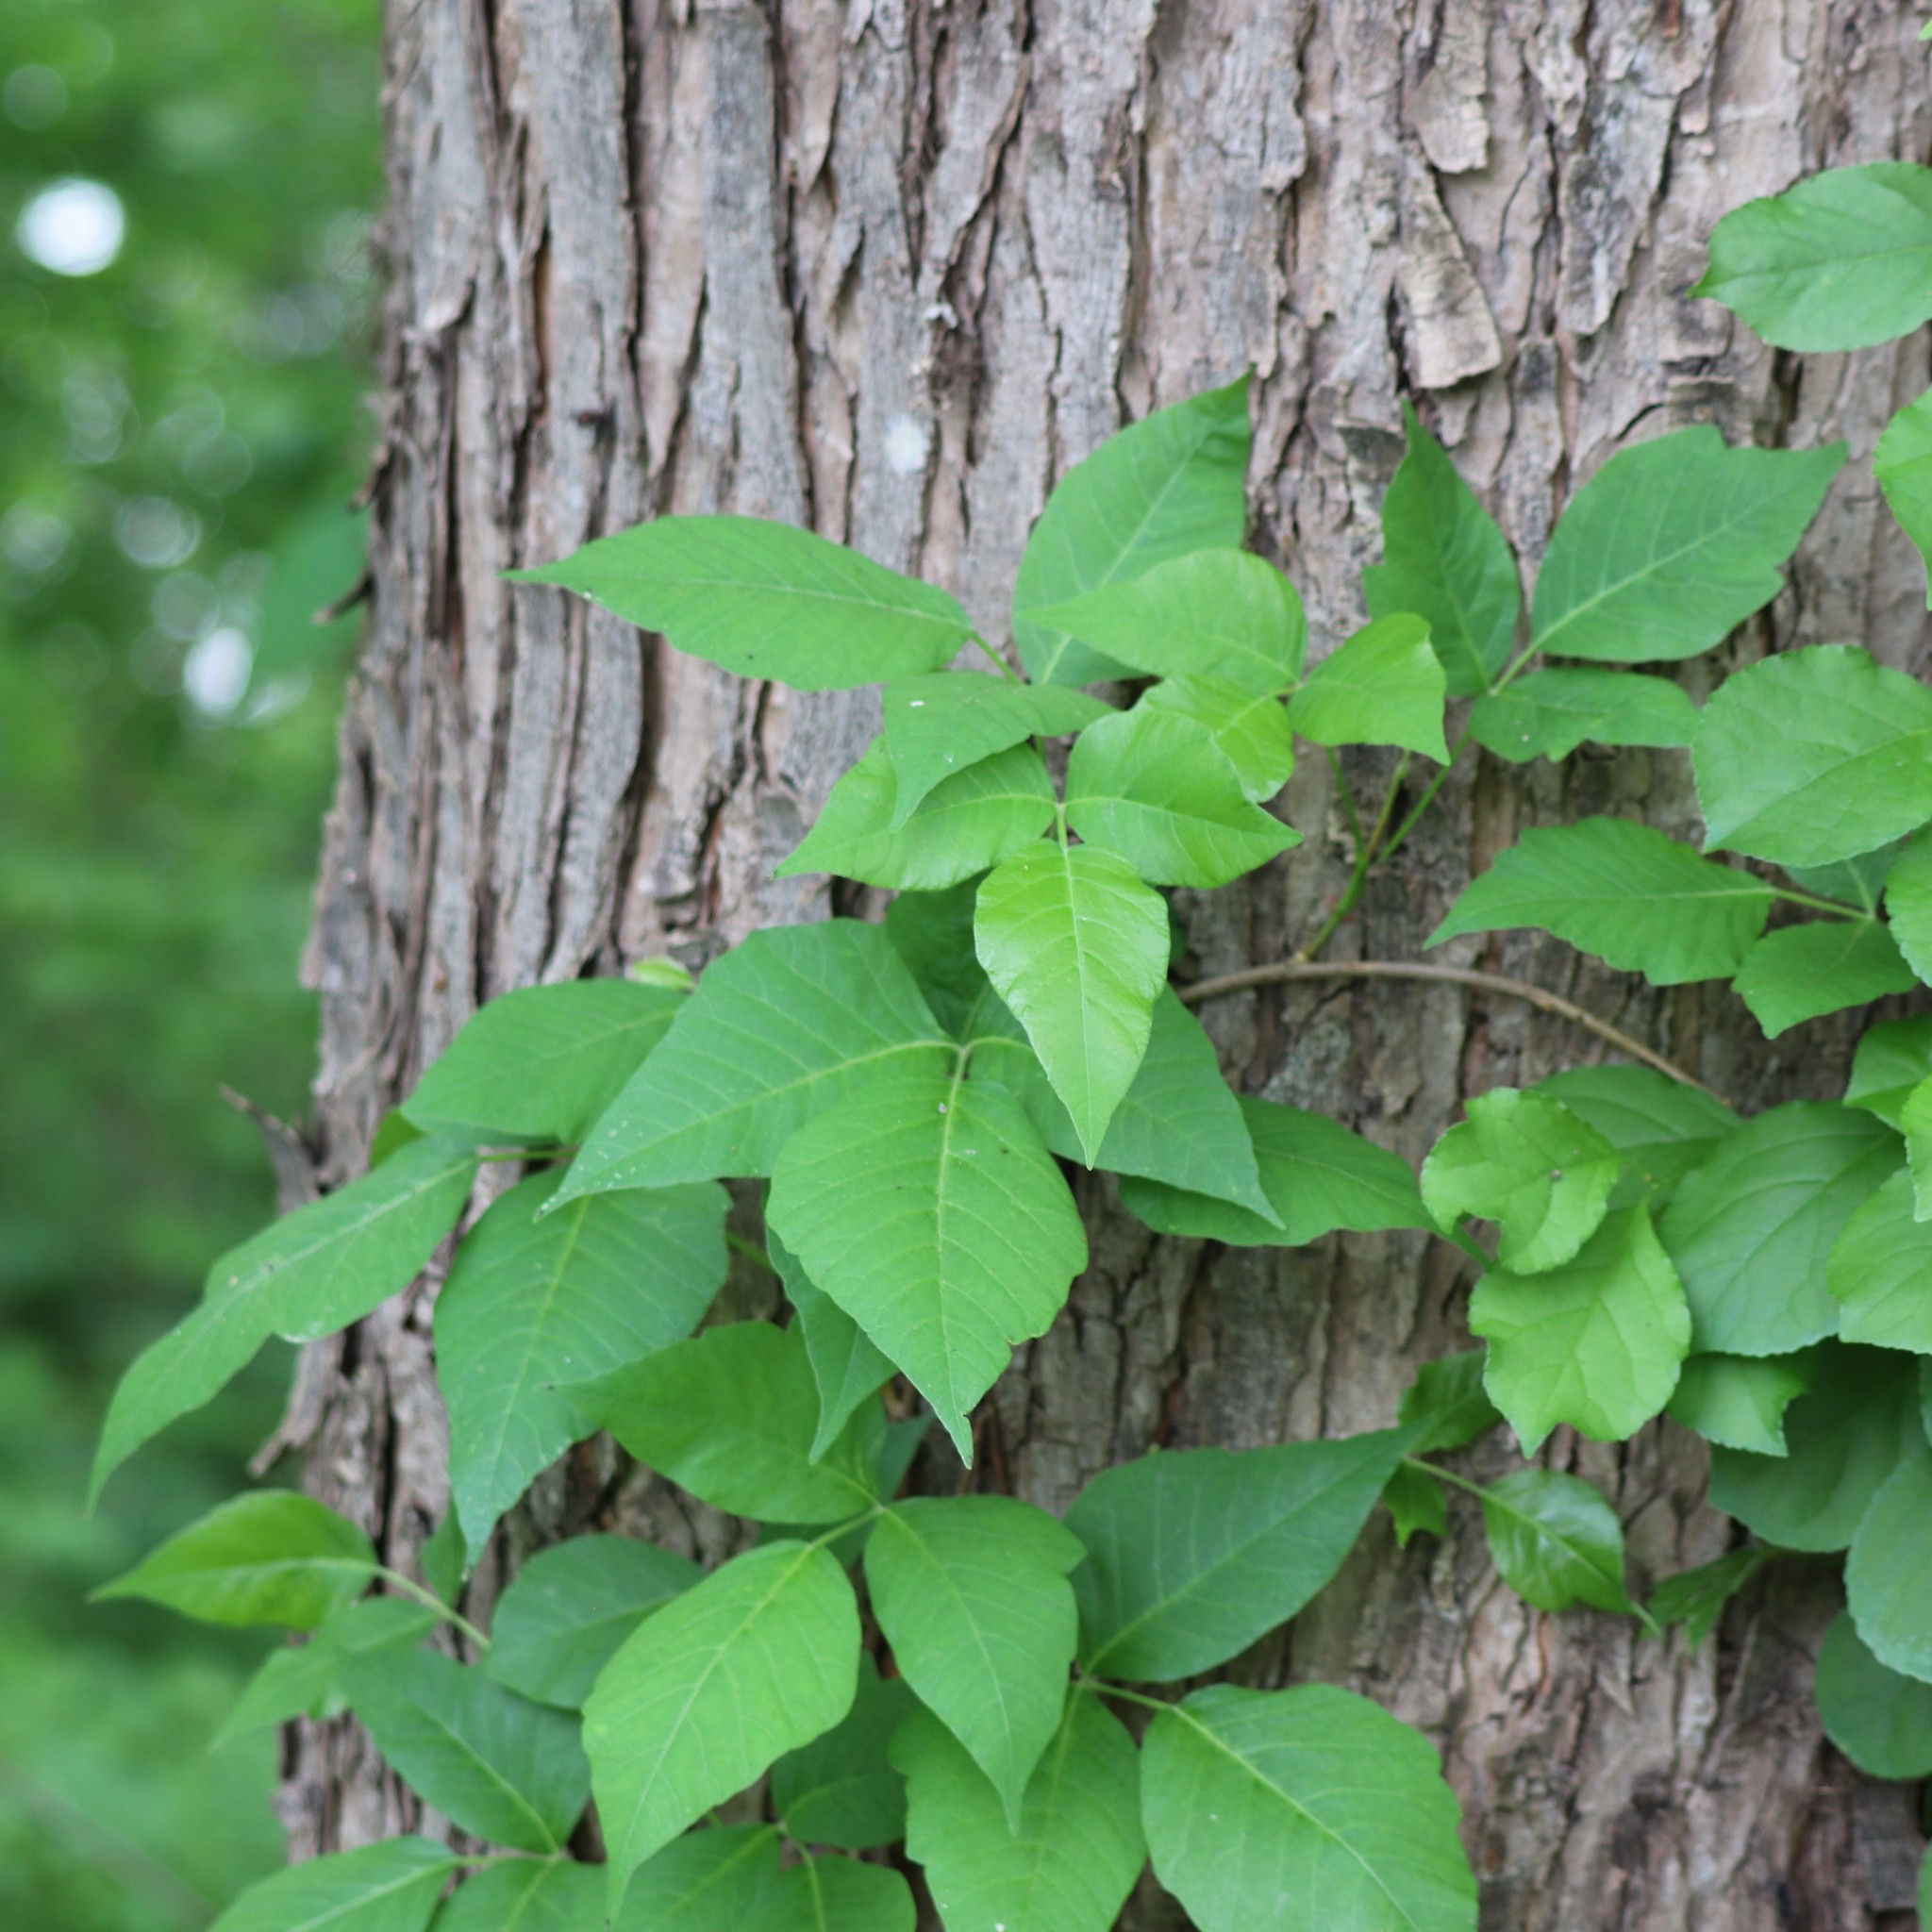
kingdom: Plantae
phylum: Tracheophyta
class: Magnoliopsida
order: Sapindales
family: Anacardiaceae
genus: Toxicodendron
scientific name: Toxicodendron radicans
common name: Poison ivy
